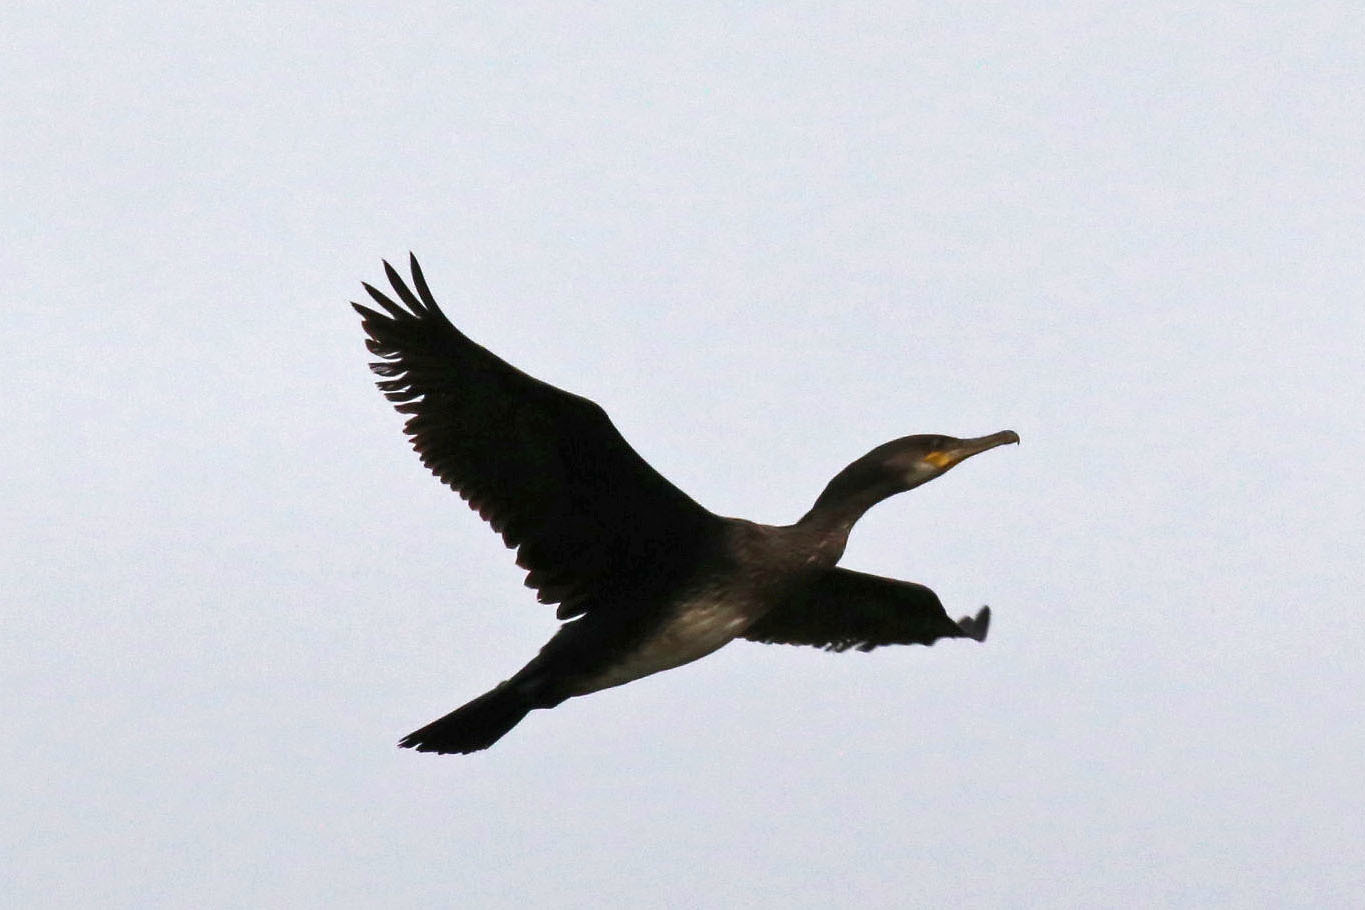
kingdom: Animalia
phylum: Chordata
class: Aves
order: Suliformes
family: Phalacrocoracidae
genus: Phalacrocorax
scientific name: Phalacrocorax auritus
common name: Double-crested cormorant
